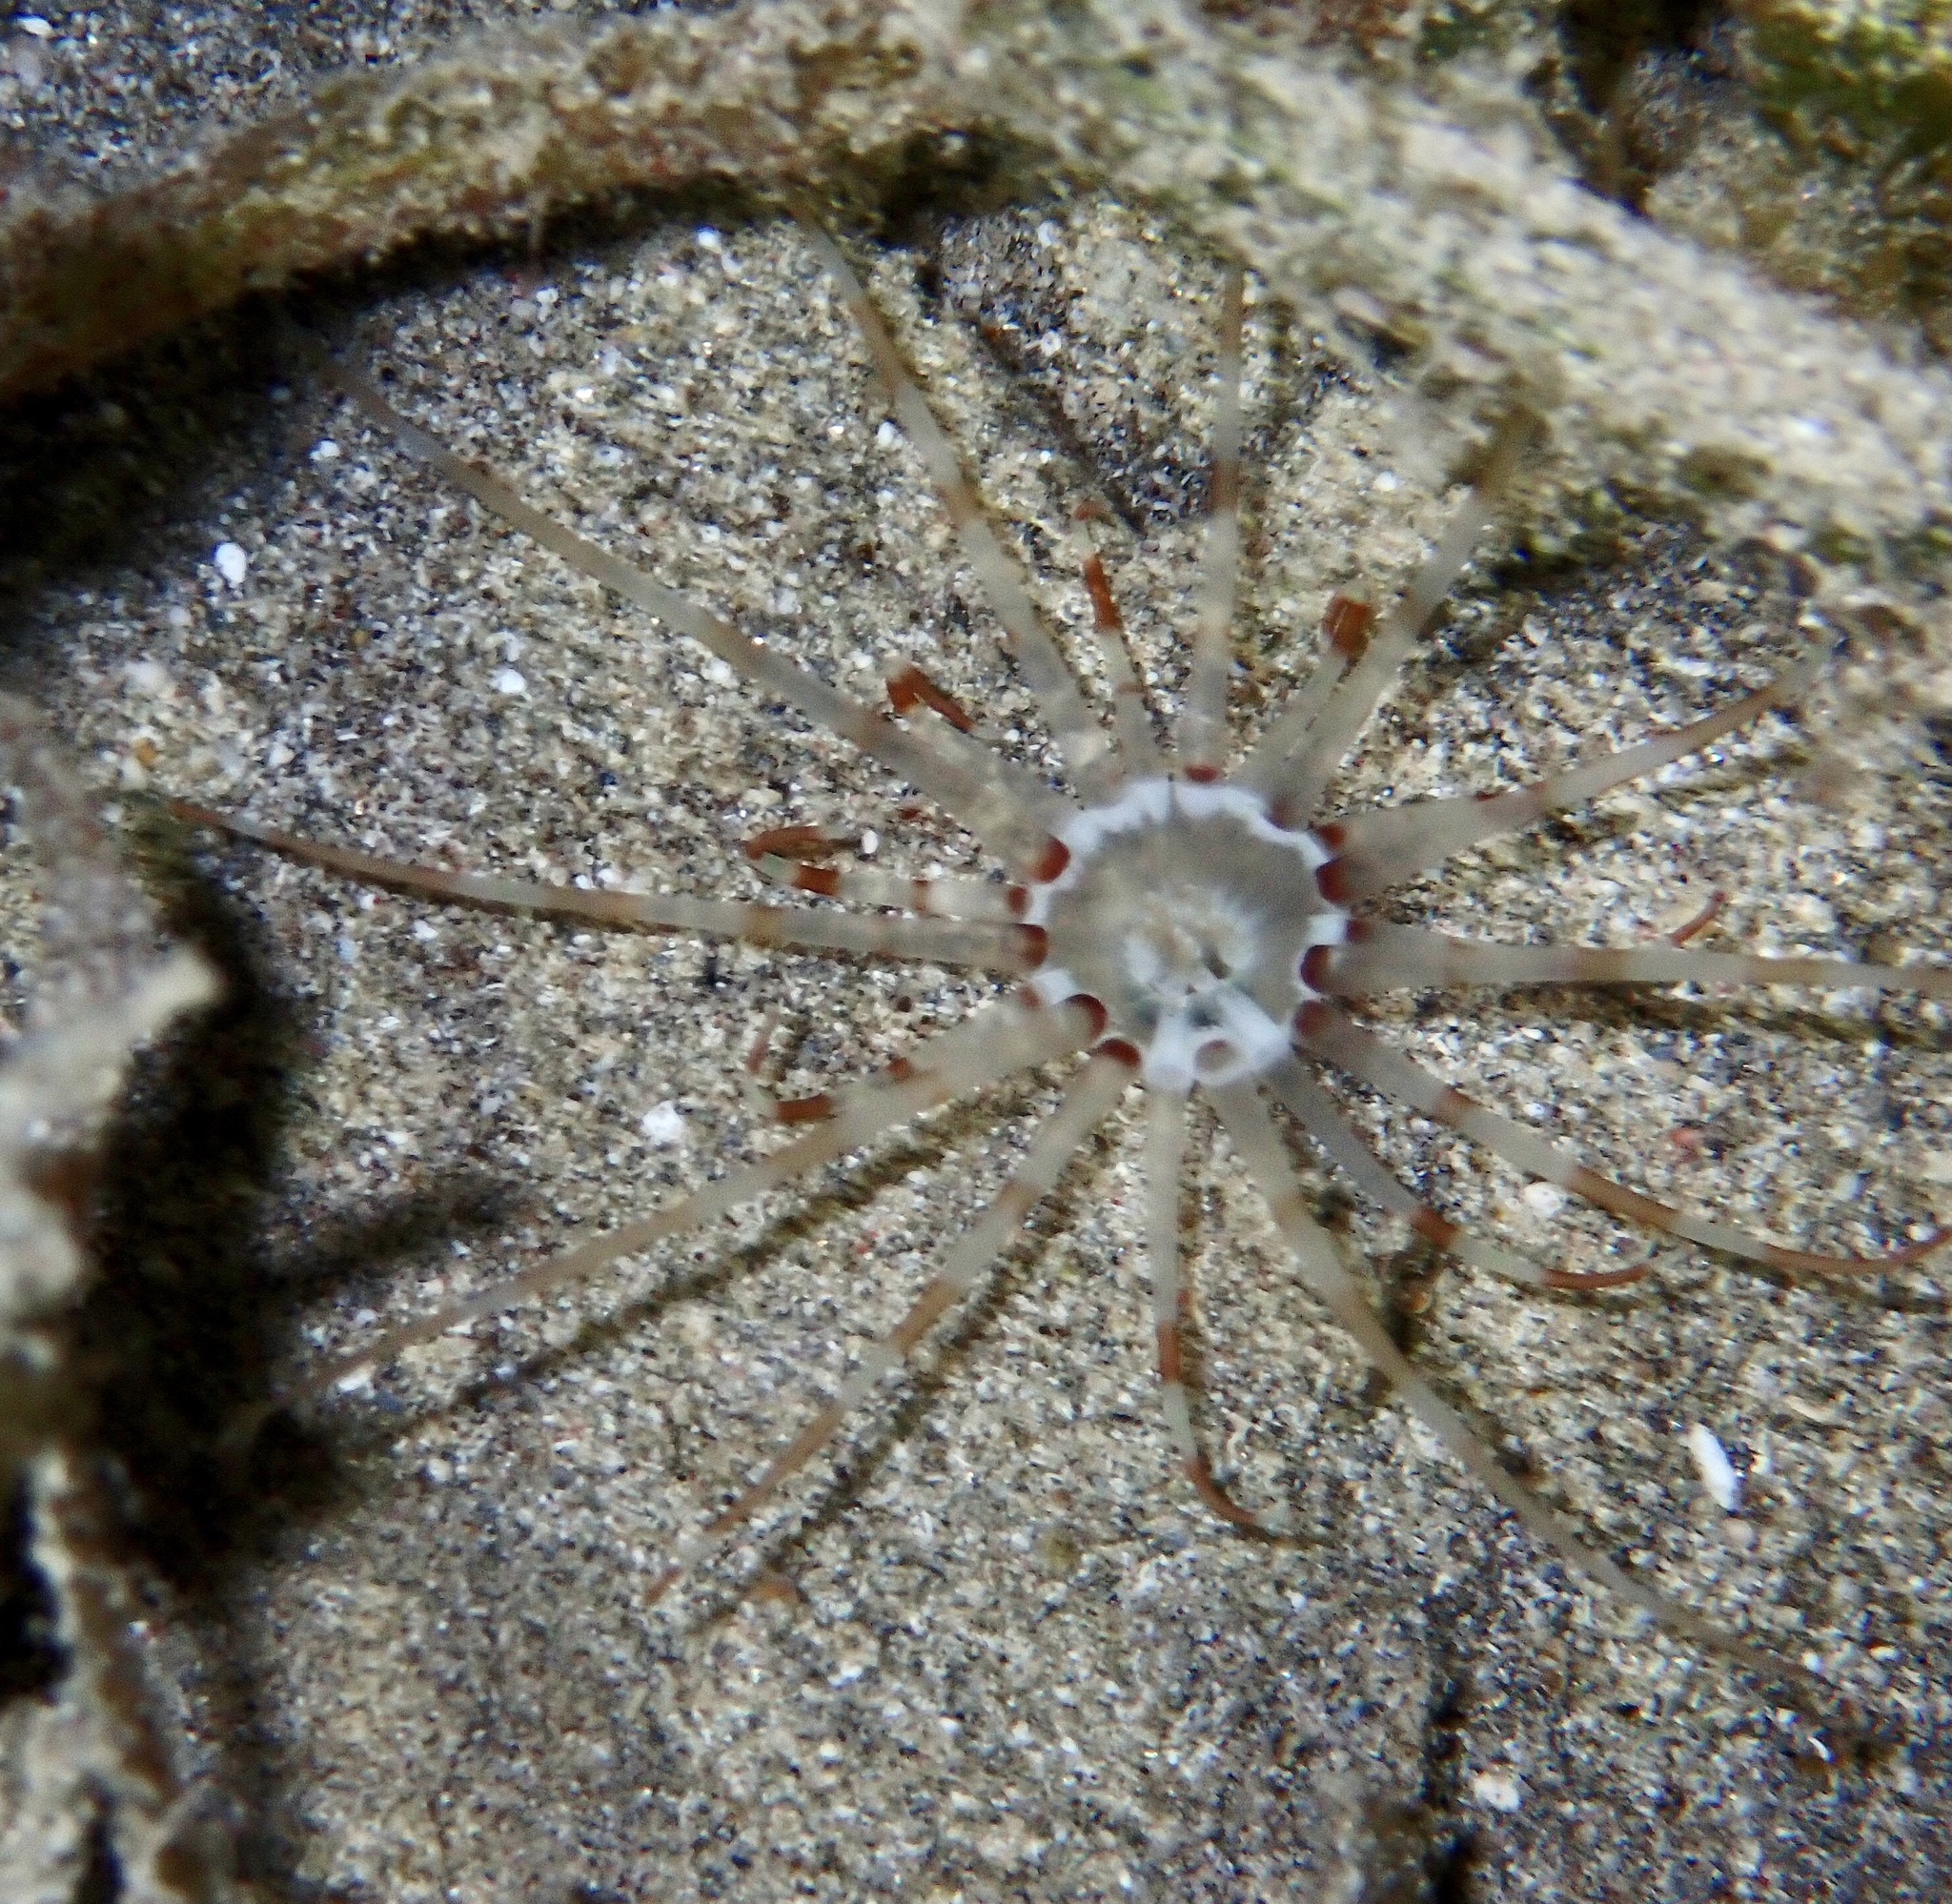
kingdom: Animalia
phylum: Cnidaria
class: Anthozoa
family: Arachnactidae
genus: Arachnanthus
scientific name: Arachnanthus lilith
